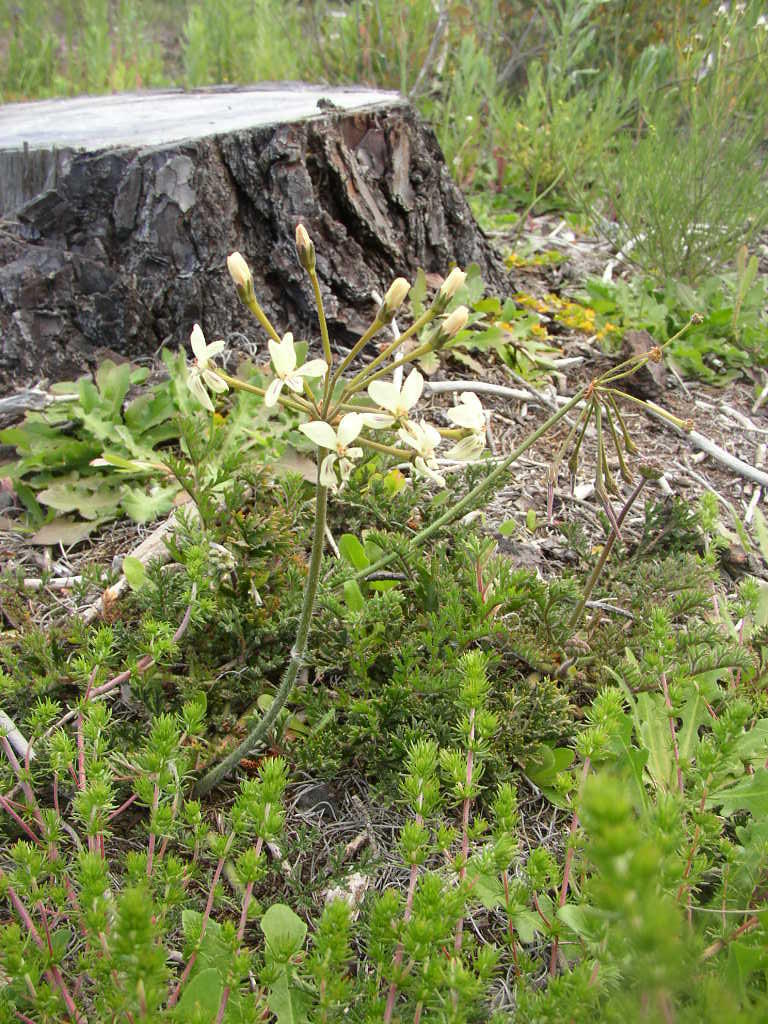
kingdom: Plantae
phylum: Tracheophyta
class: Magnoliopsida
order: Geraniales
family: Geraniaceae
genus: Pelargonium
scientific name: Pelargonium triste
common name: Night-scent pelargonium
